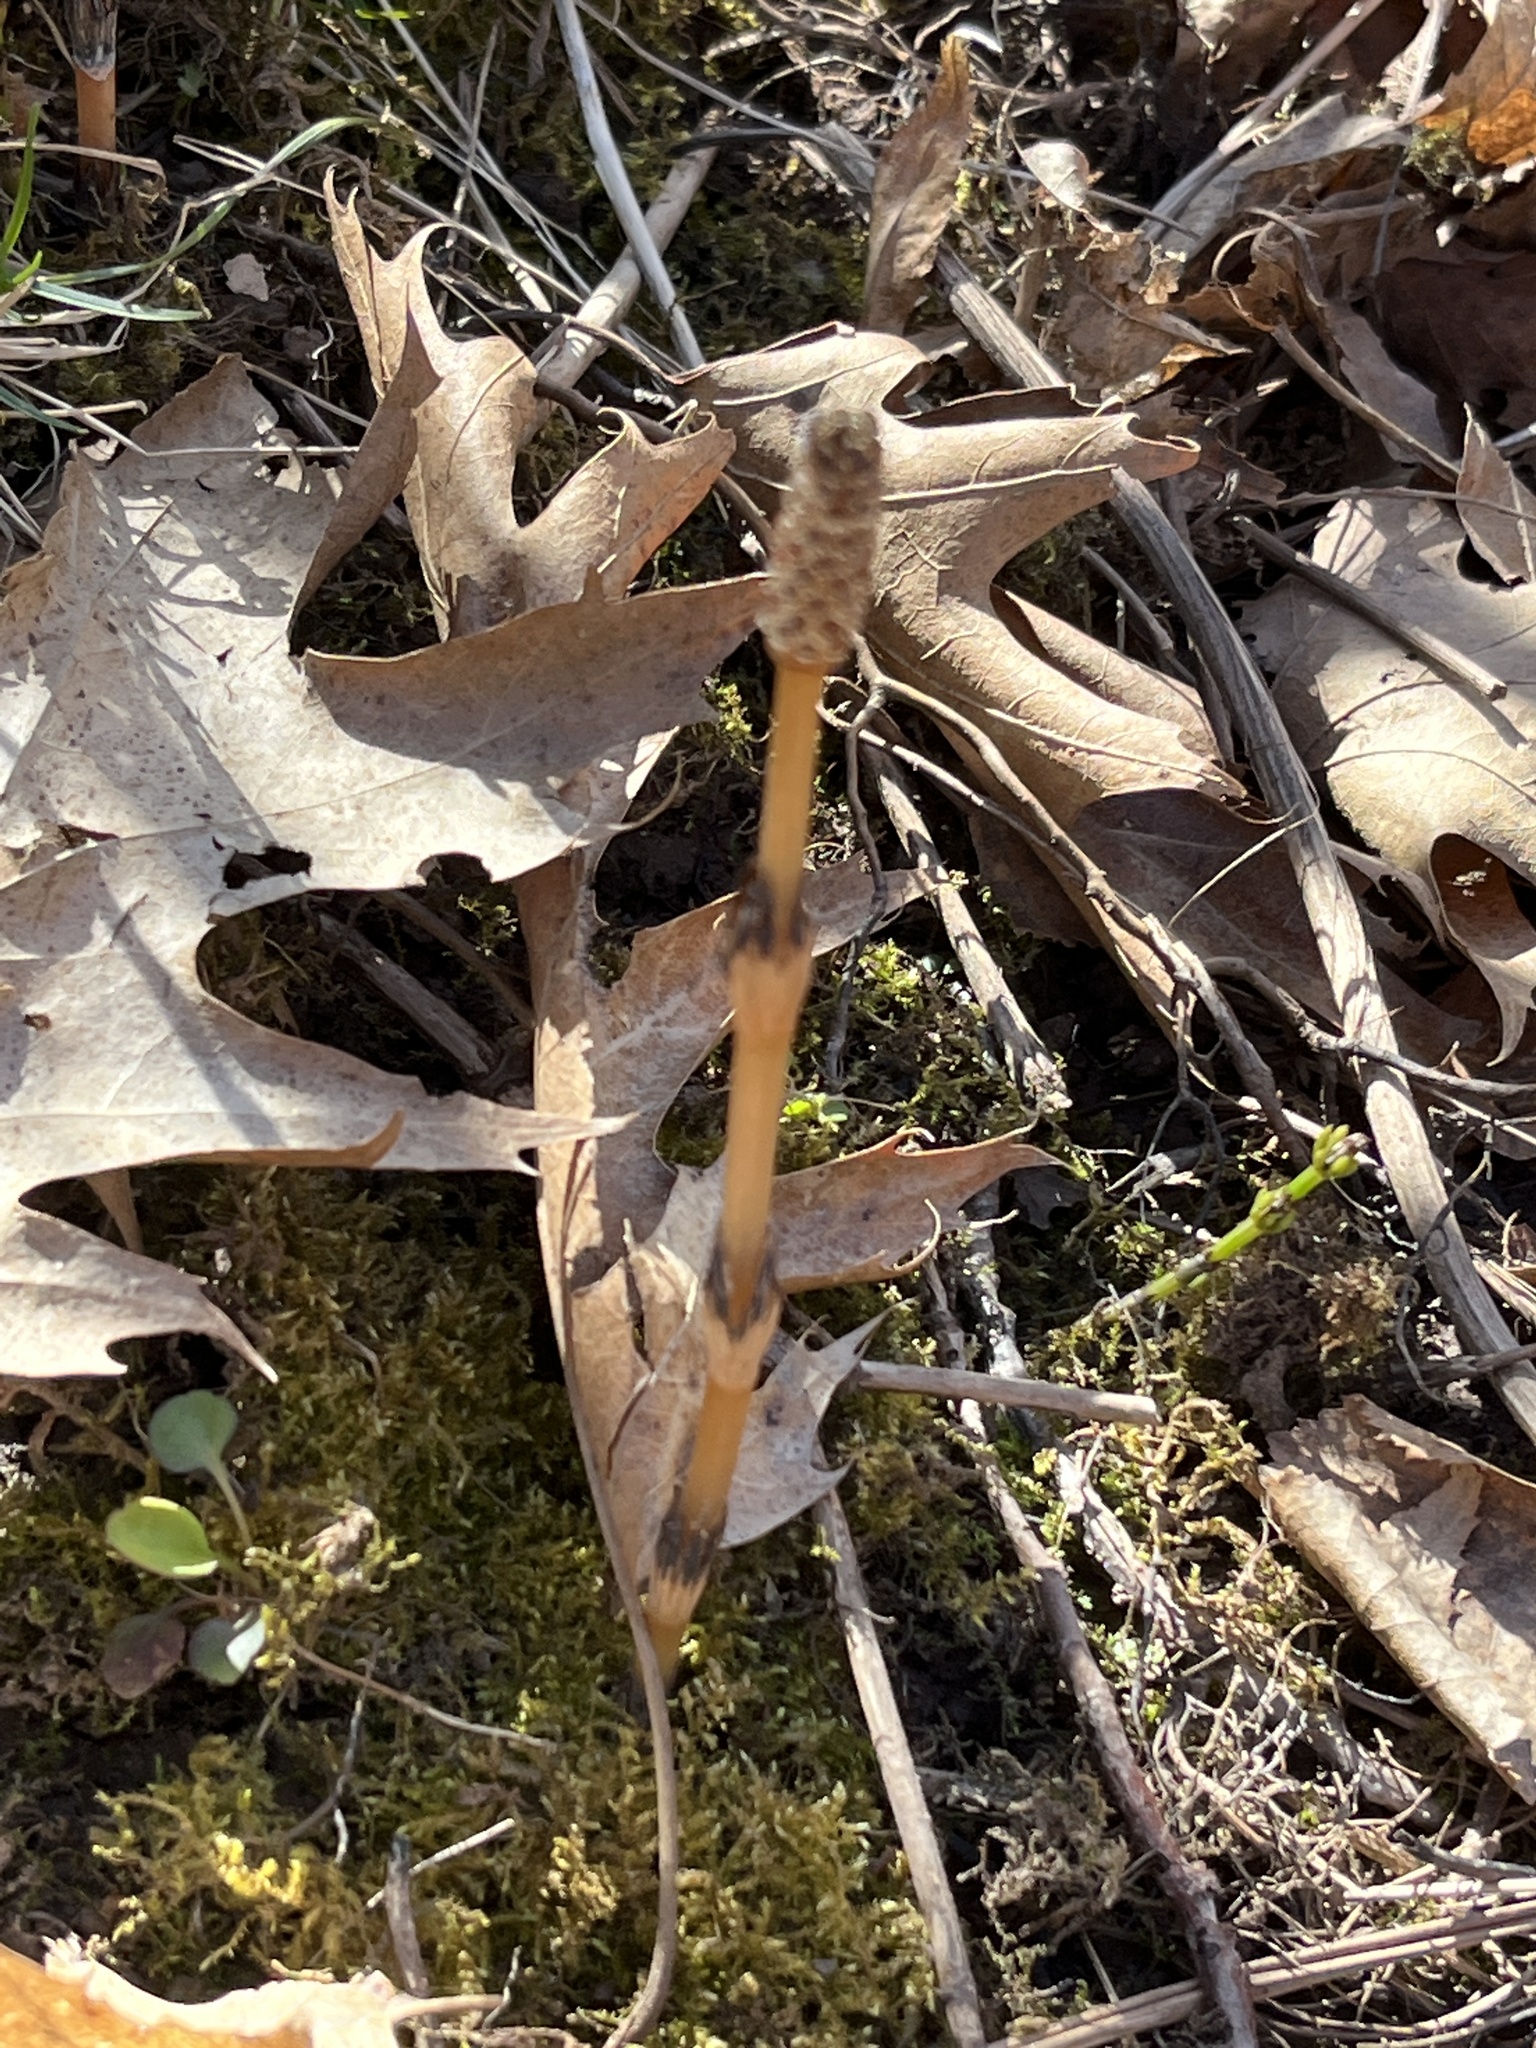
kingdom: Plantae
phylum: Tracheophyta
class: Polypodiopsida
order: Equisetales
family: Equisetaceae
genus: Equisetum
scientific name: Equisetum arvense
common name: Field horsetail
